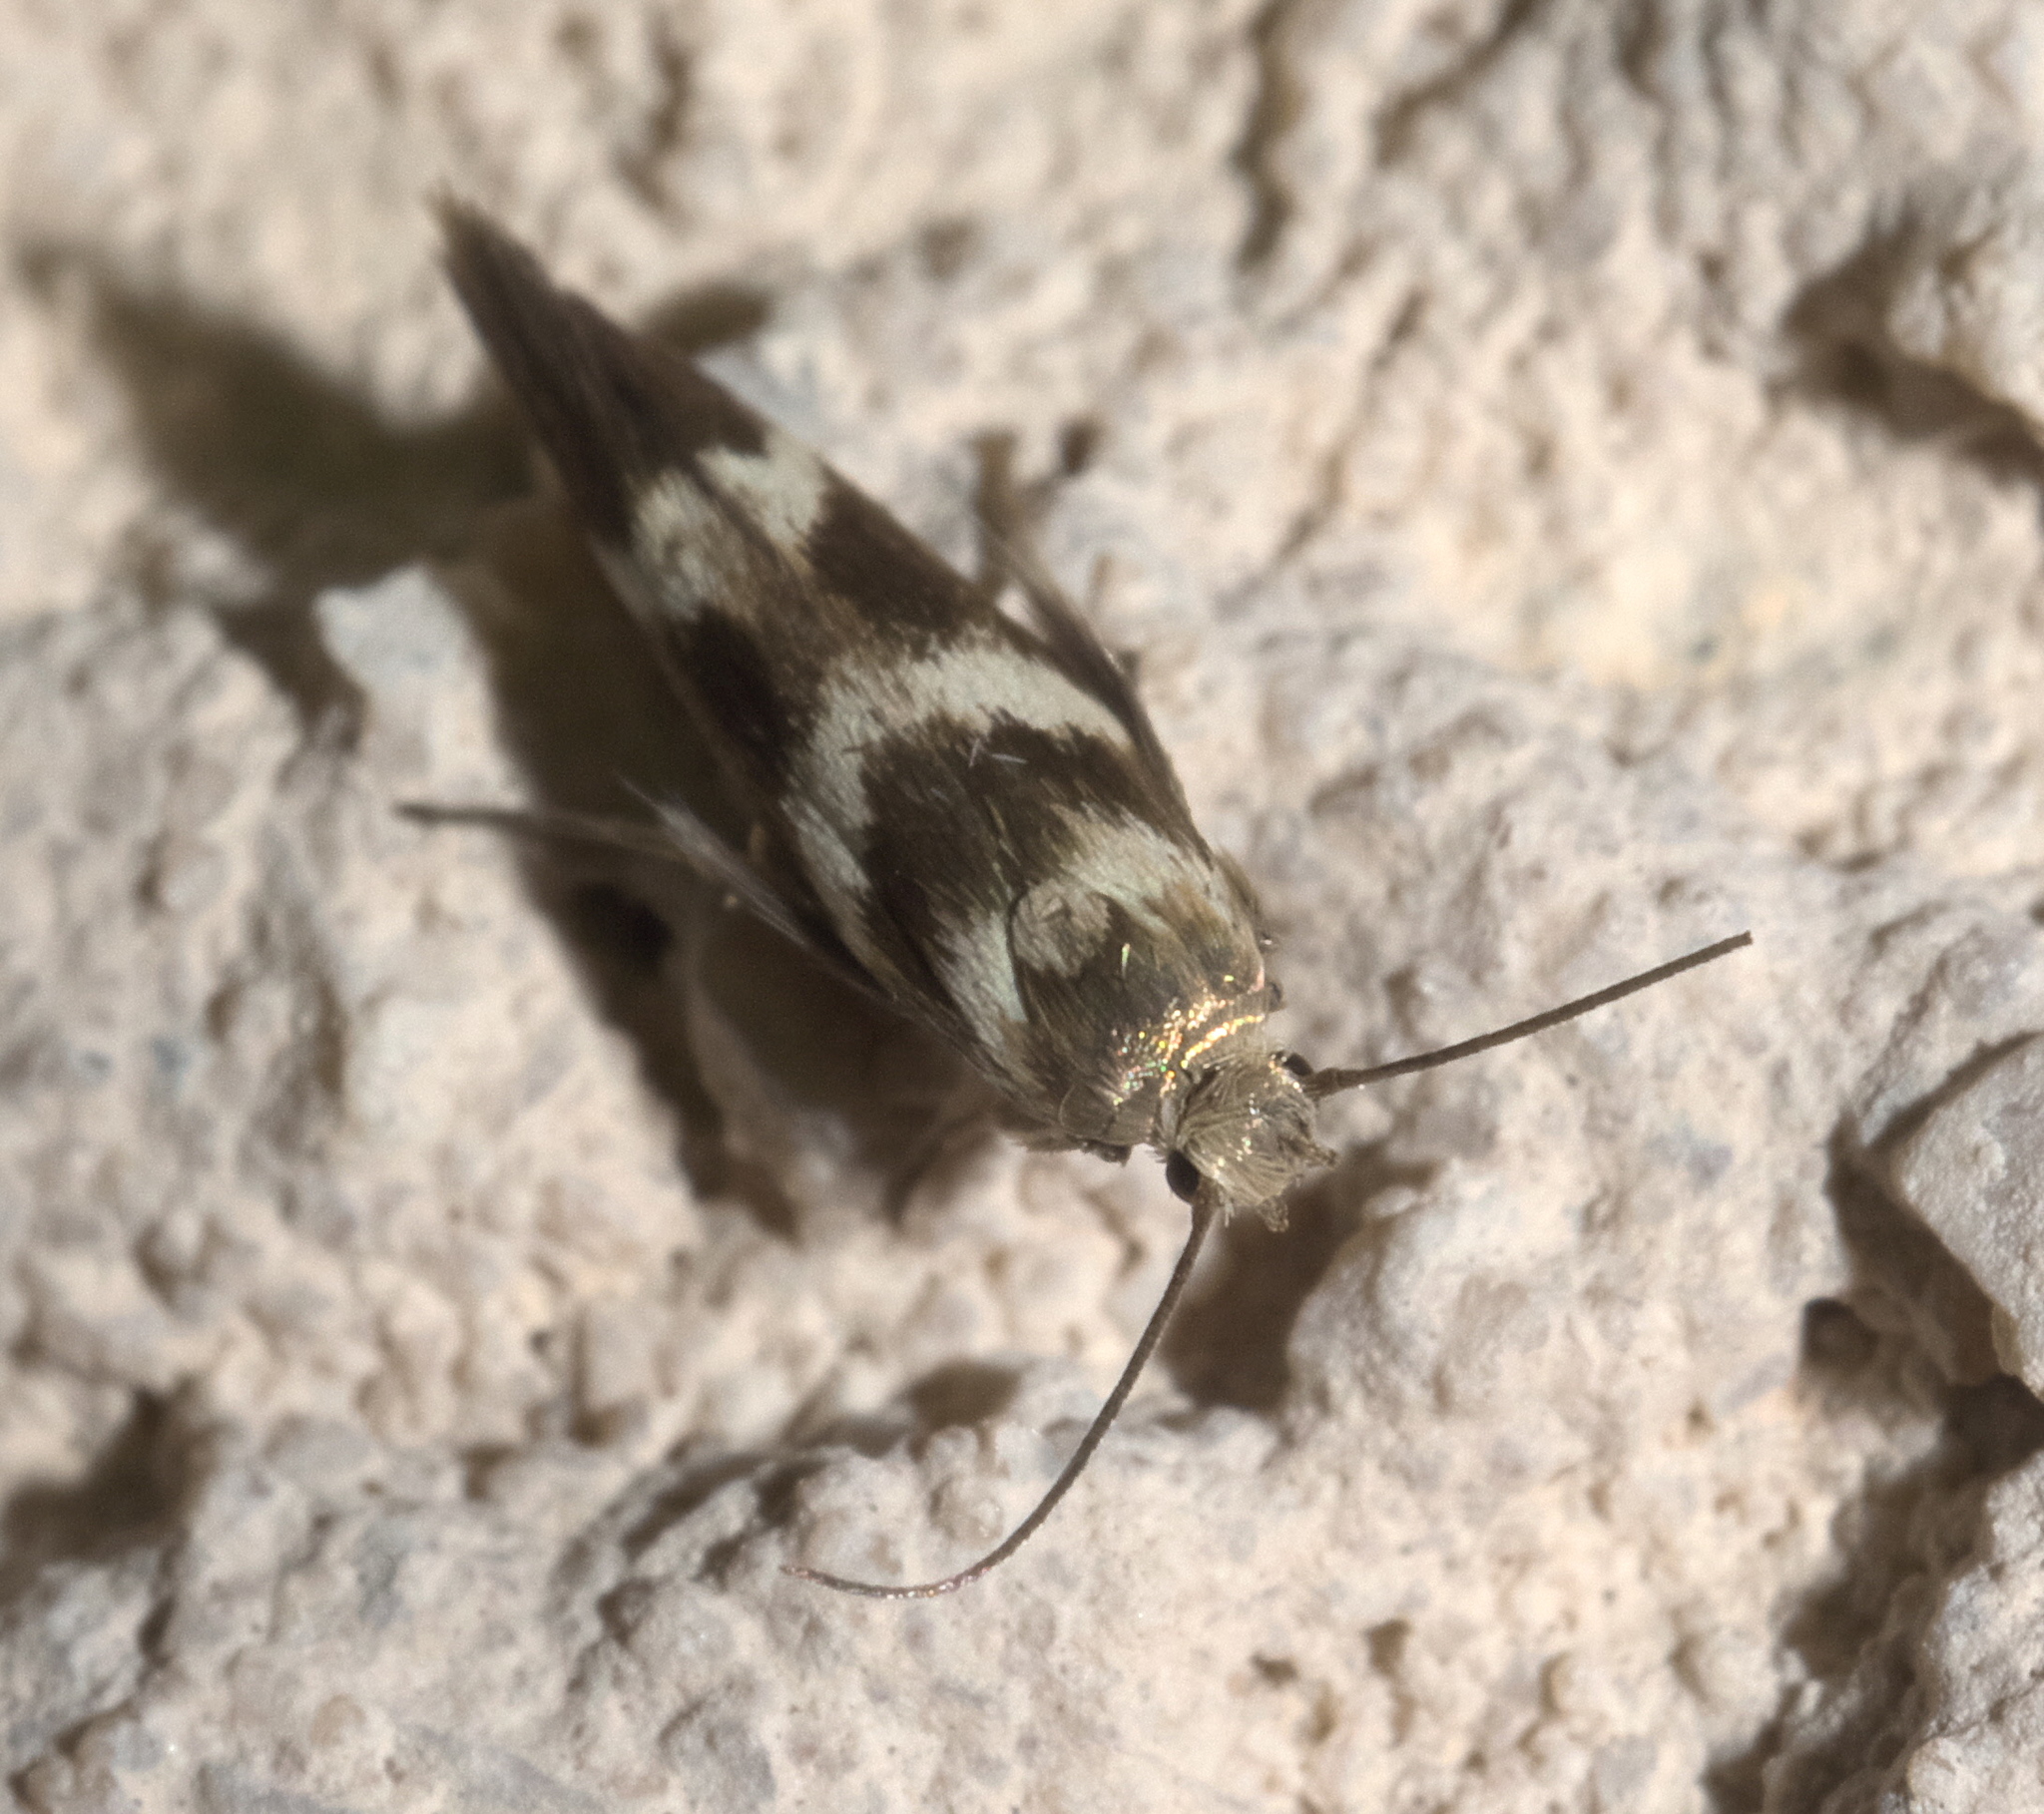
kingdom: Animalia
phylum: Arthropoda
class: Insecta
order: Lepidoptera
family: Scythrididae
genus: Scythris
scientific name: Scythris trivinctella
